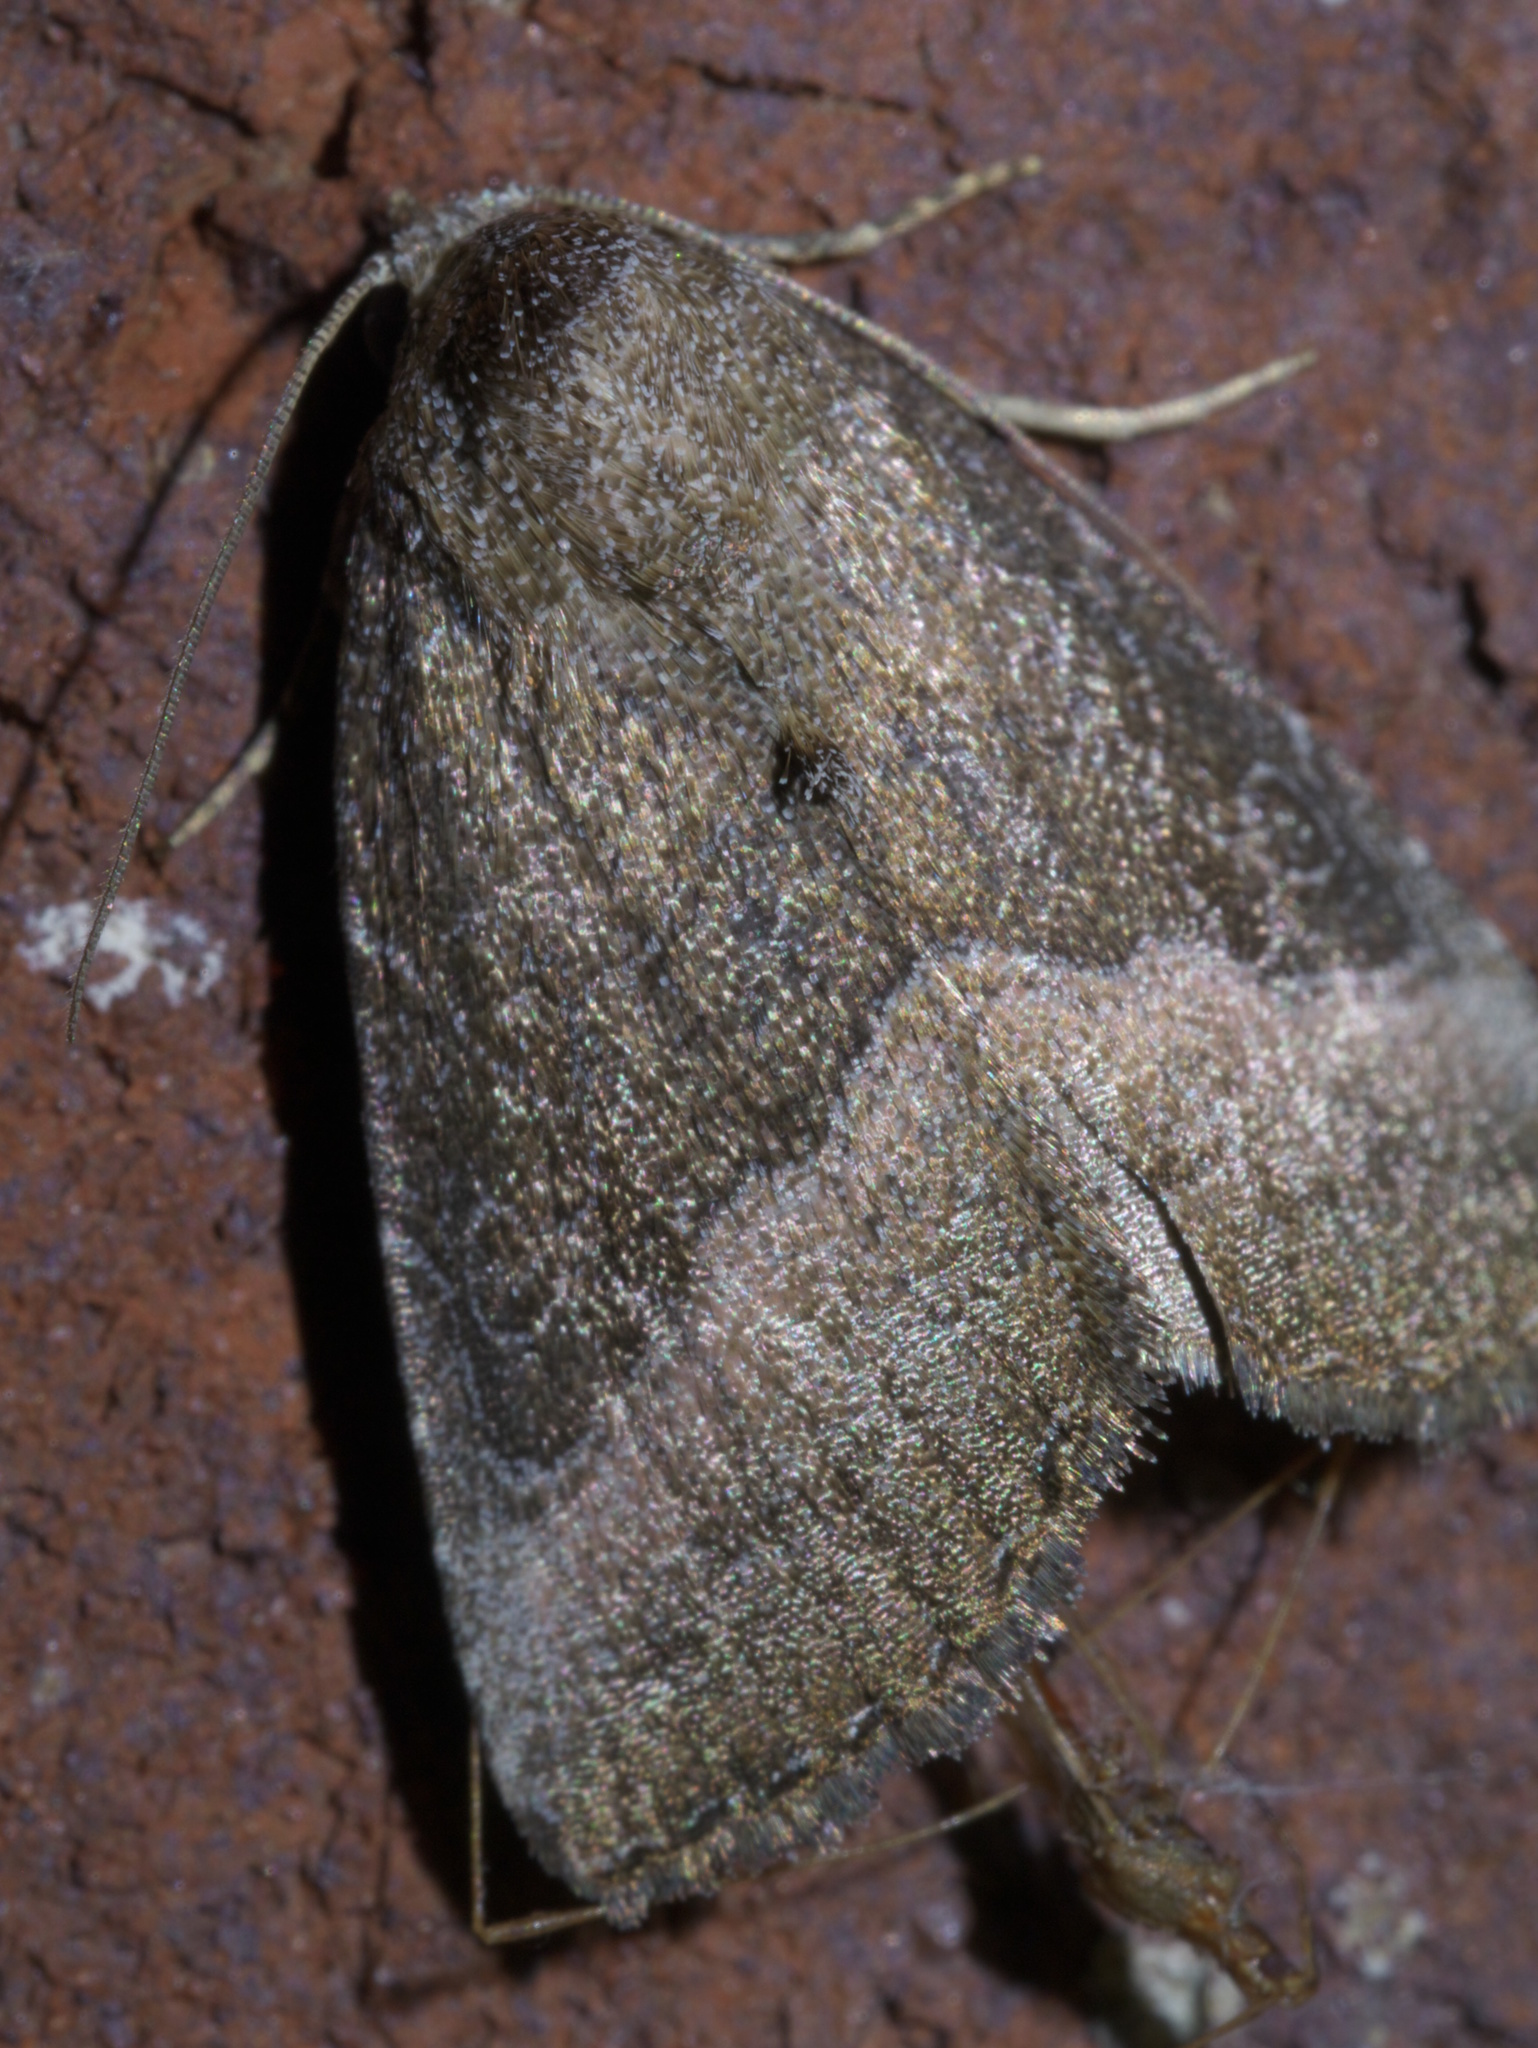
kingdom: Animalia
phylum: Arthropoda
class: Insecta
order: Lepidoptera
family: Noctuidae
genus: Ogdoconta
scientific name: Ogdoconta cinereola
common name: Common pinkband
